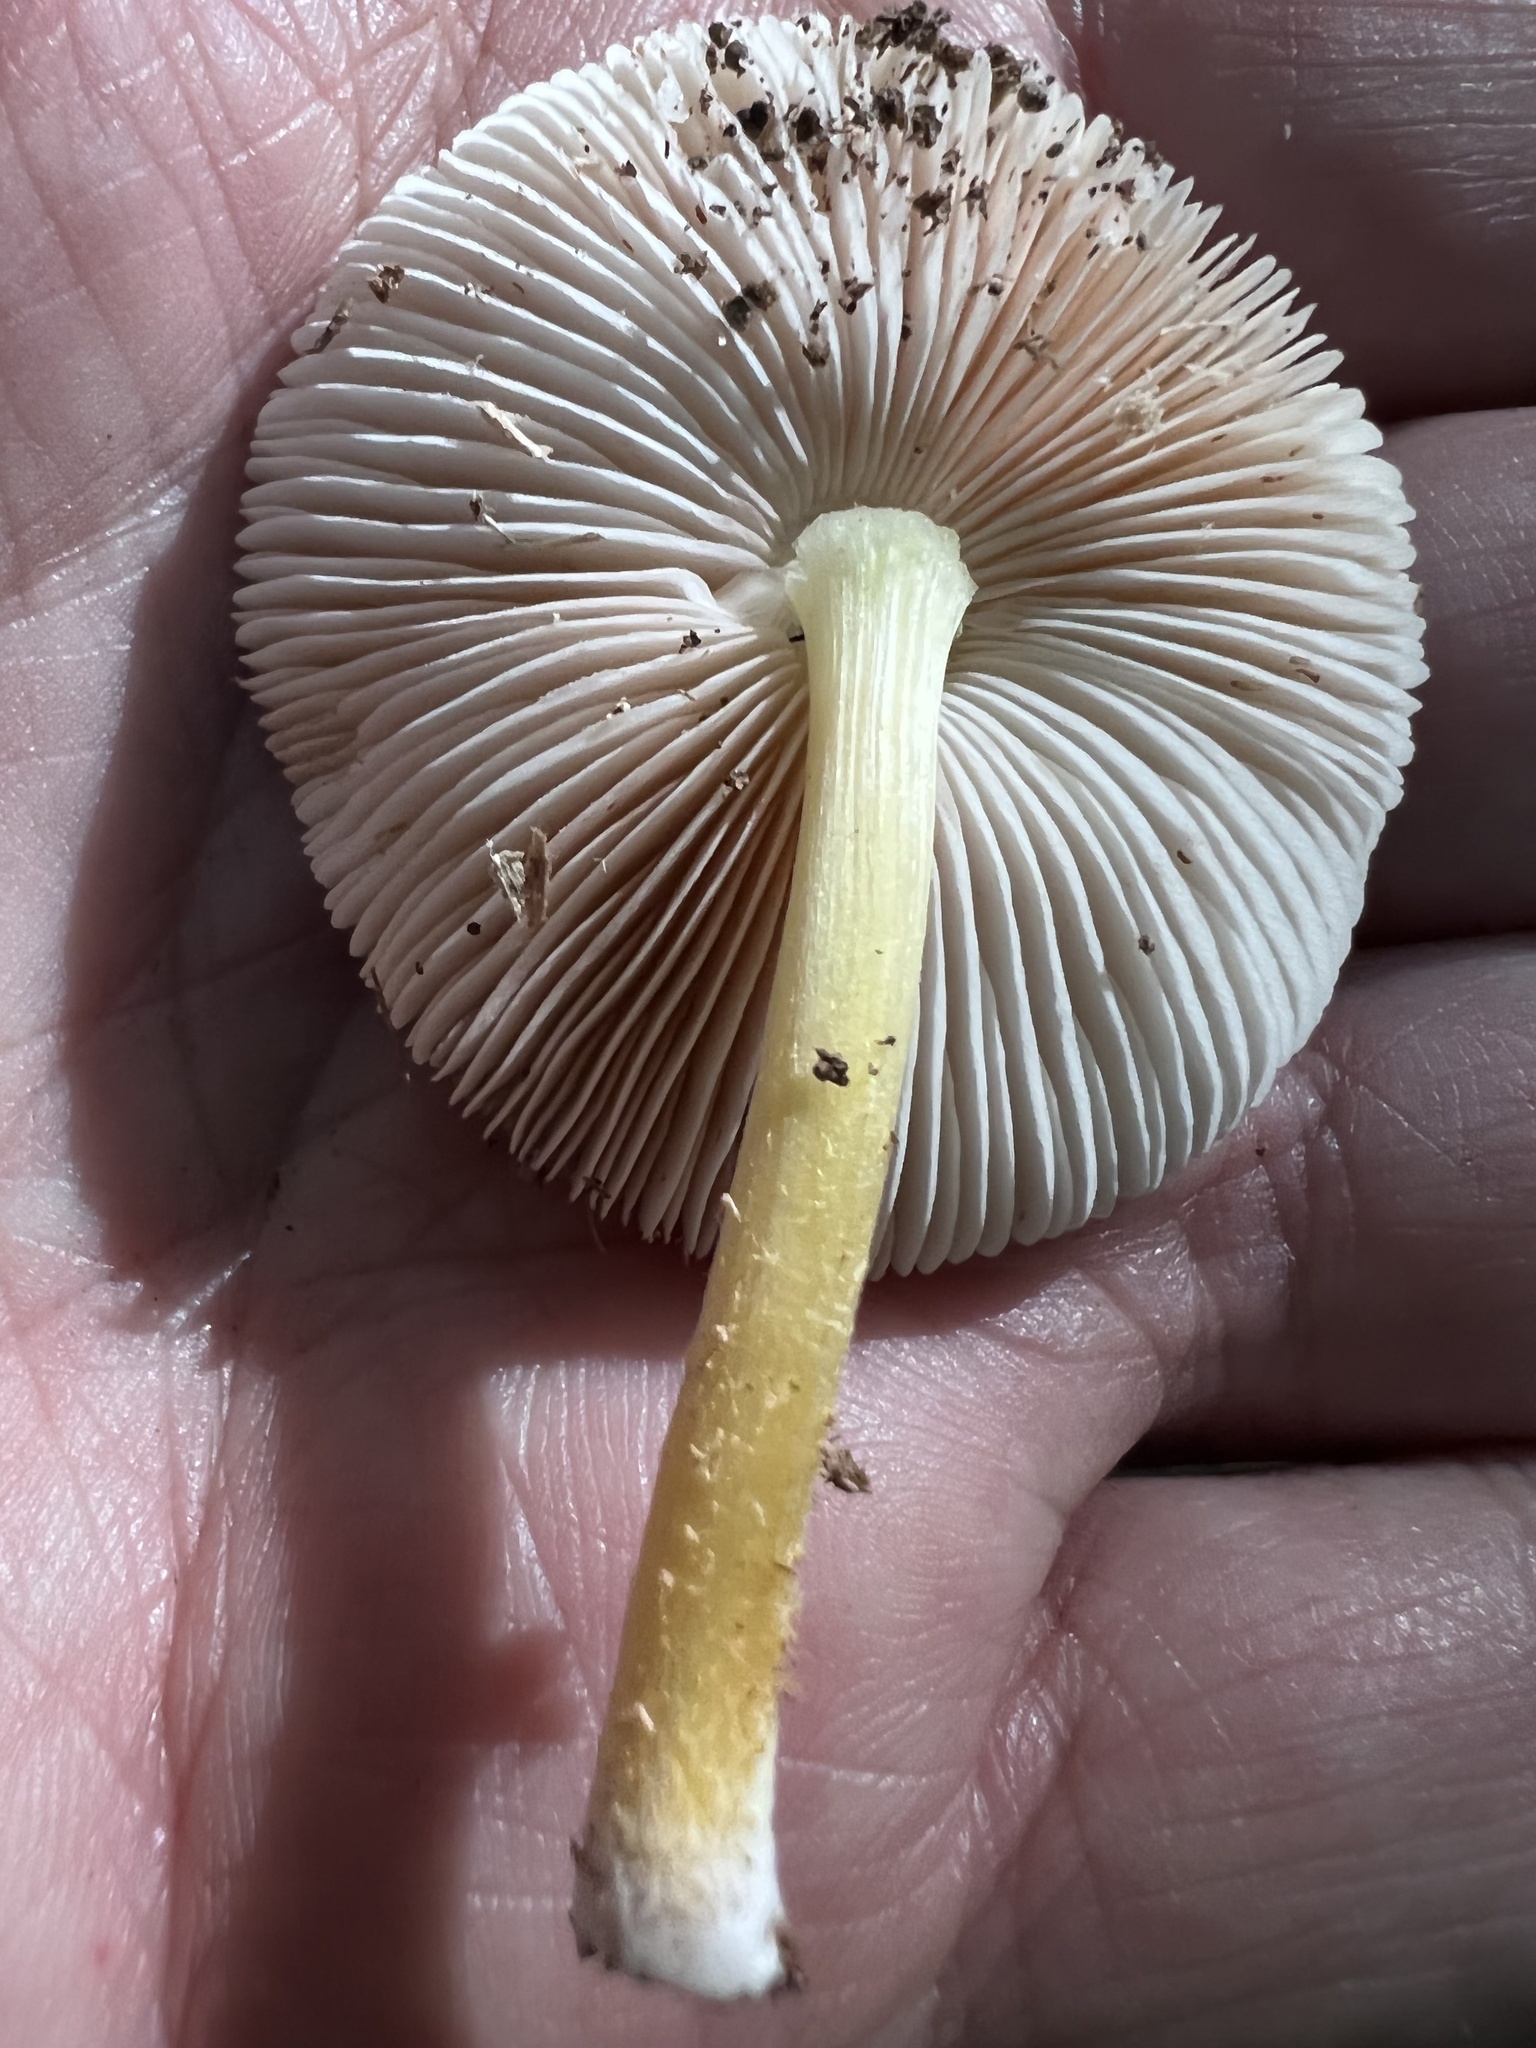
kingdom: Fungi
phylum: Basidiomycota
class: Agaricomycetes
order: Agaricales
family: Pluteaceae
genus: Pluteus
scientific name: Pluteus austrofulvus
